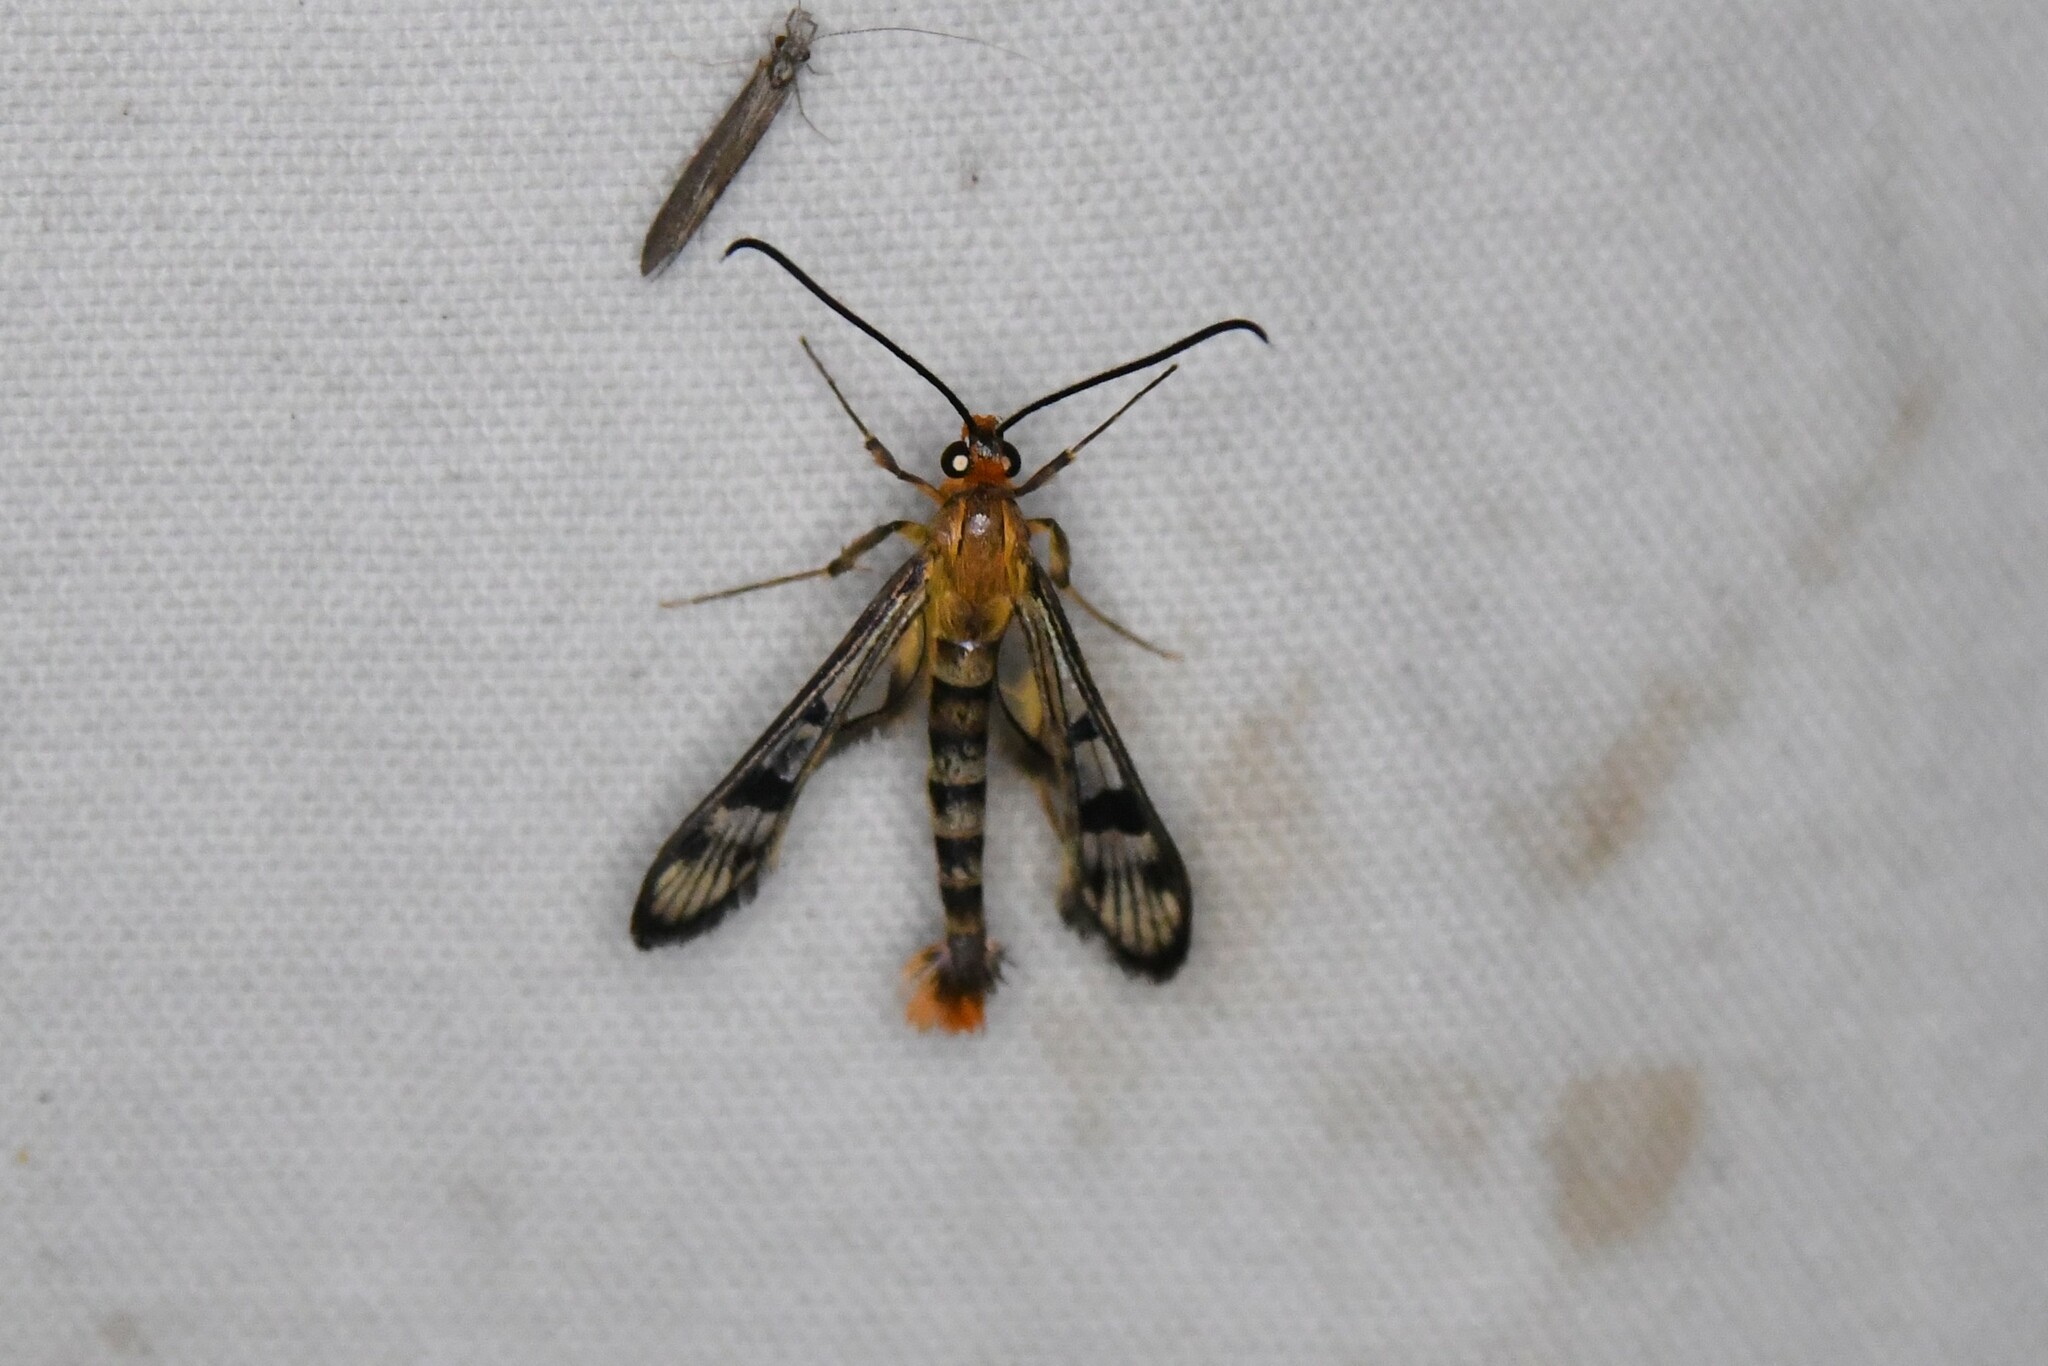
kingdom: Animalia
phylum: Arthropoda
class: Insecta
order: Lepidoptera
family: Sesiidae
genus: Synanthedon
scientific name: Synanthedon acerni
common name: Maple callus borer moth
